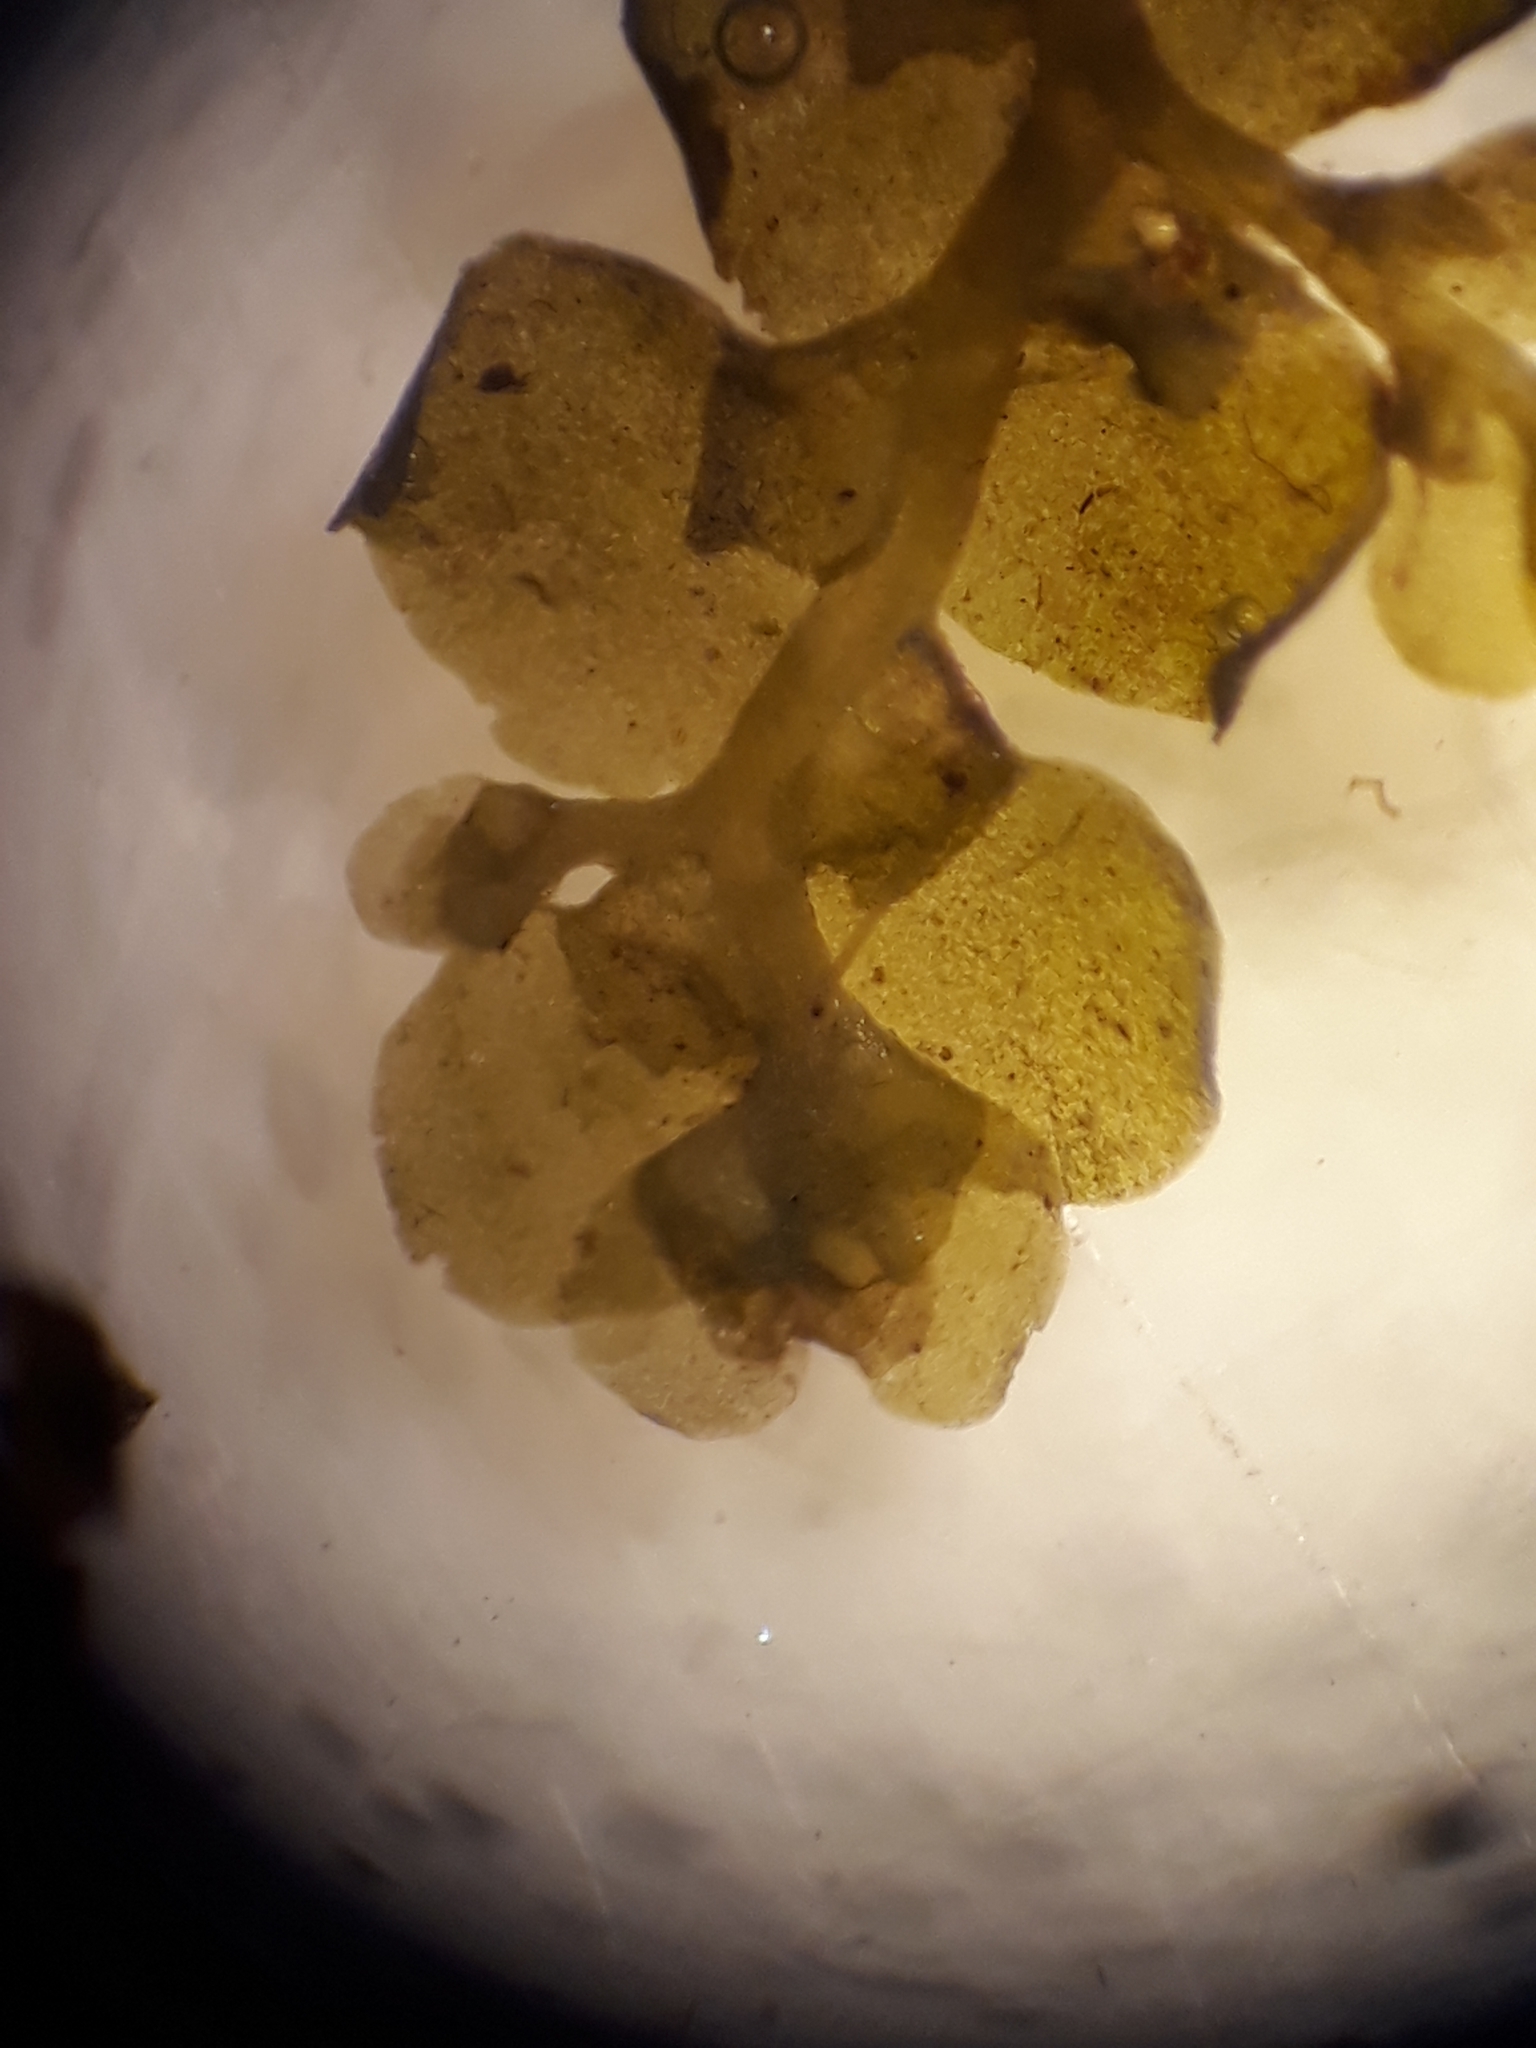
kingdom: Plantae
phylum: Marchantiophyta
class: Jungermanniopsida
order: Porellales
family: Radulaceae
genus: Radula
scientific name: Radula strangulata
